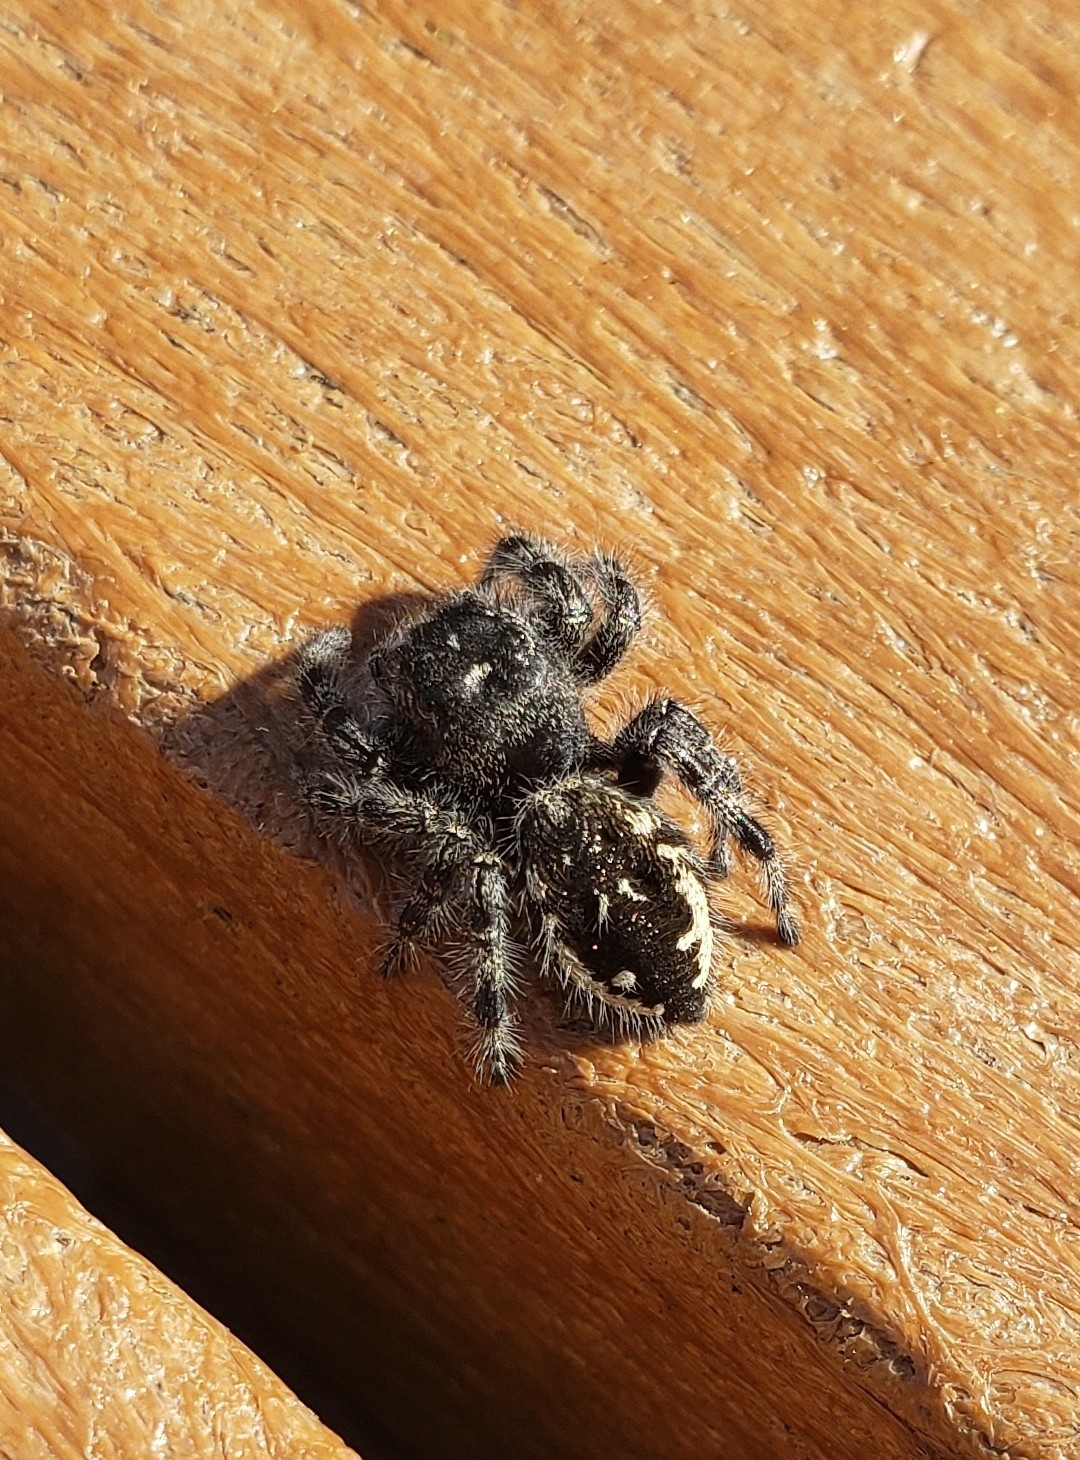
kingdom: Animalia
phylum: Arthropoda
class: Arachnida
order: Araneae
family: Salticidae
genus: Phidippus
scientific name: Phidippus borealis
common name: Boreal tufted jumping spider
